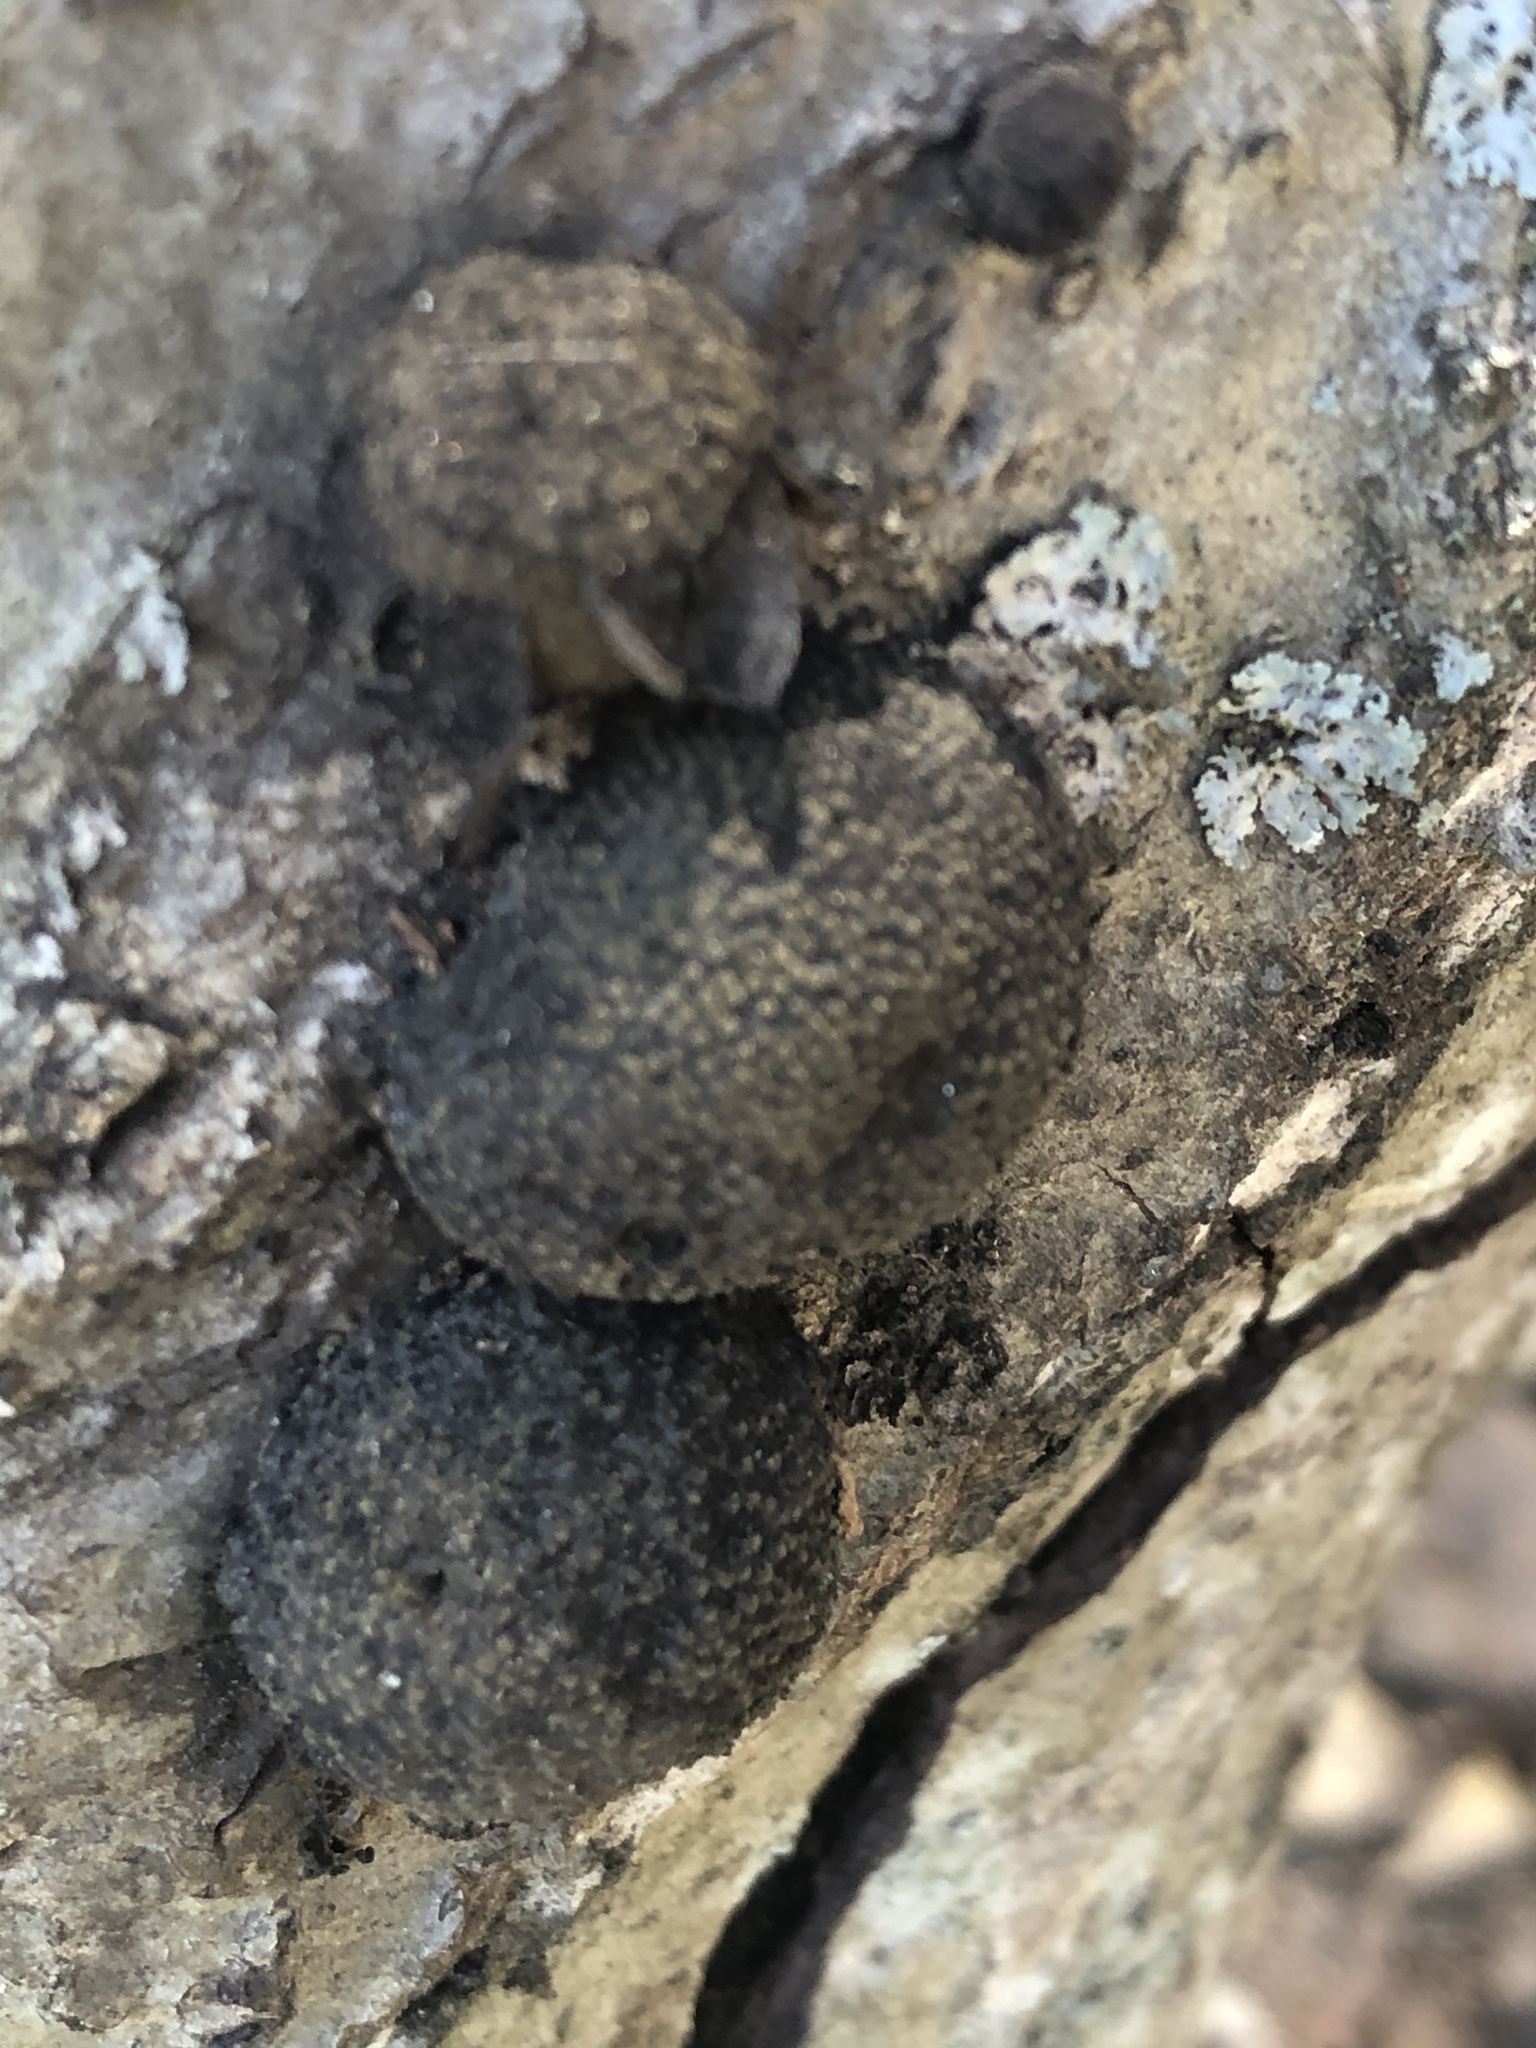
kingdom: Fungi
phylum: Ascomycota
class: Sordariomycetes
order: Xylariales
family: Hypoxylaceae
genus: Annulohypoxylon
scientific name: Annulohypoxylon thouarsianum
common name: Cramp balls
